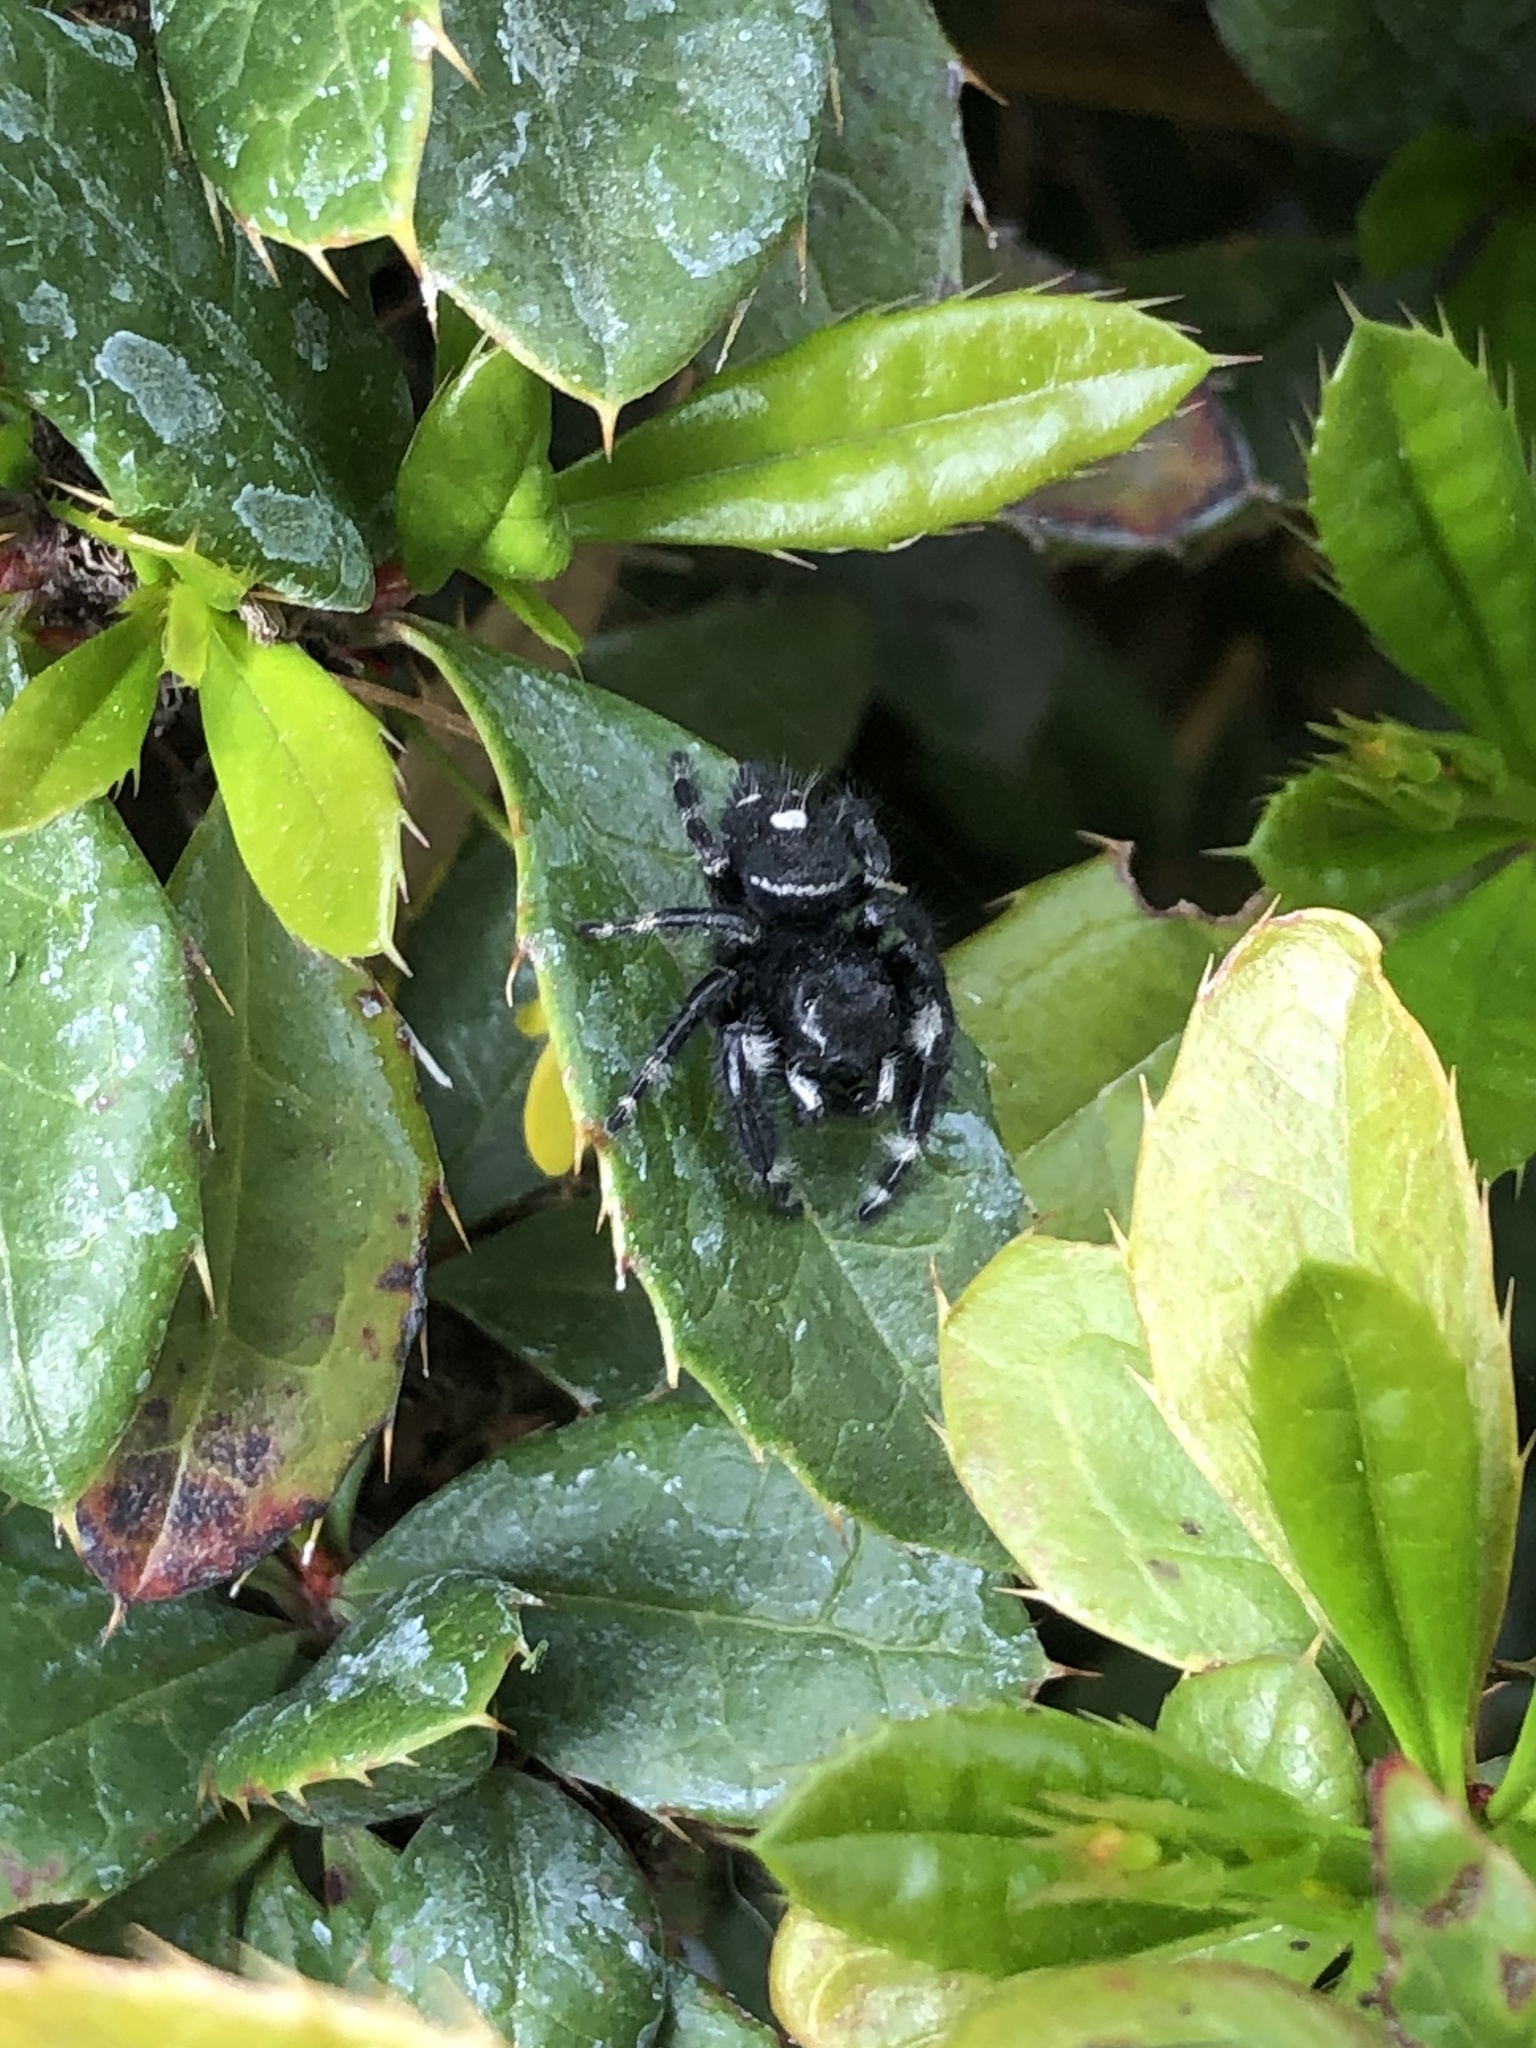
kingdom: Animalia
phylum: Arthropoda
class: Arachnida
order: Araneae
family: Salticidae
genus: Phidippus
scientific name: Phidippus audax
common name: Bold jumper
